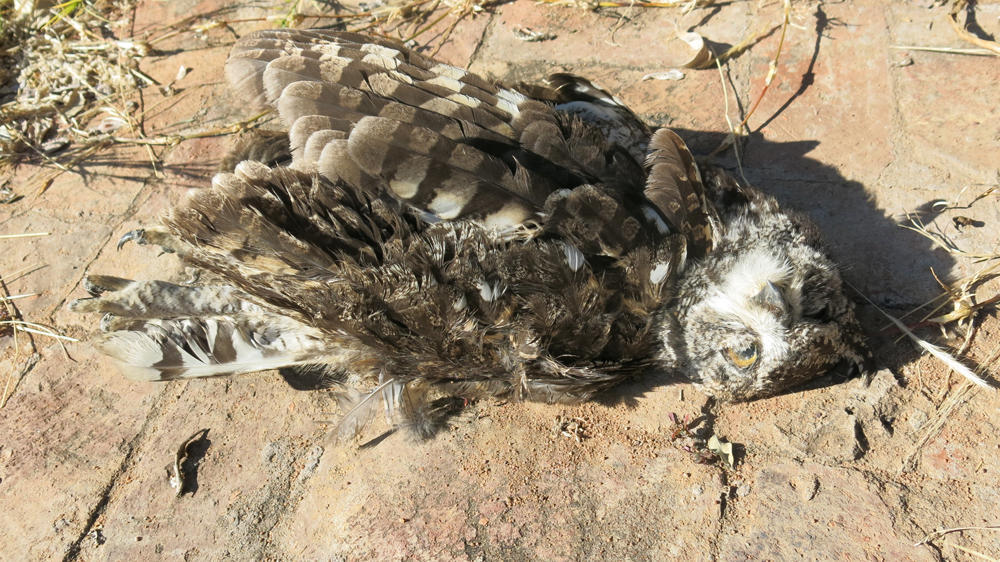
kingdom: Animalia
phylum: Chordata
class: Aves
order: Strigiformes
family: Strigidae
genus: Bubo
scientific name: Bubo africanus
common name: Spotted eagle-owl
